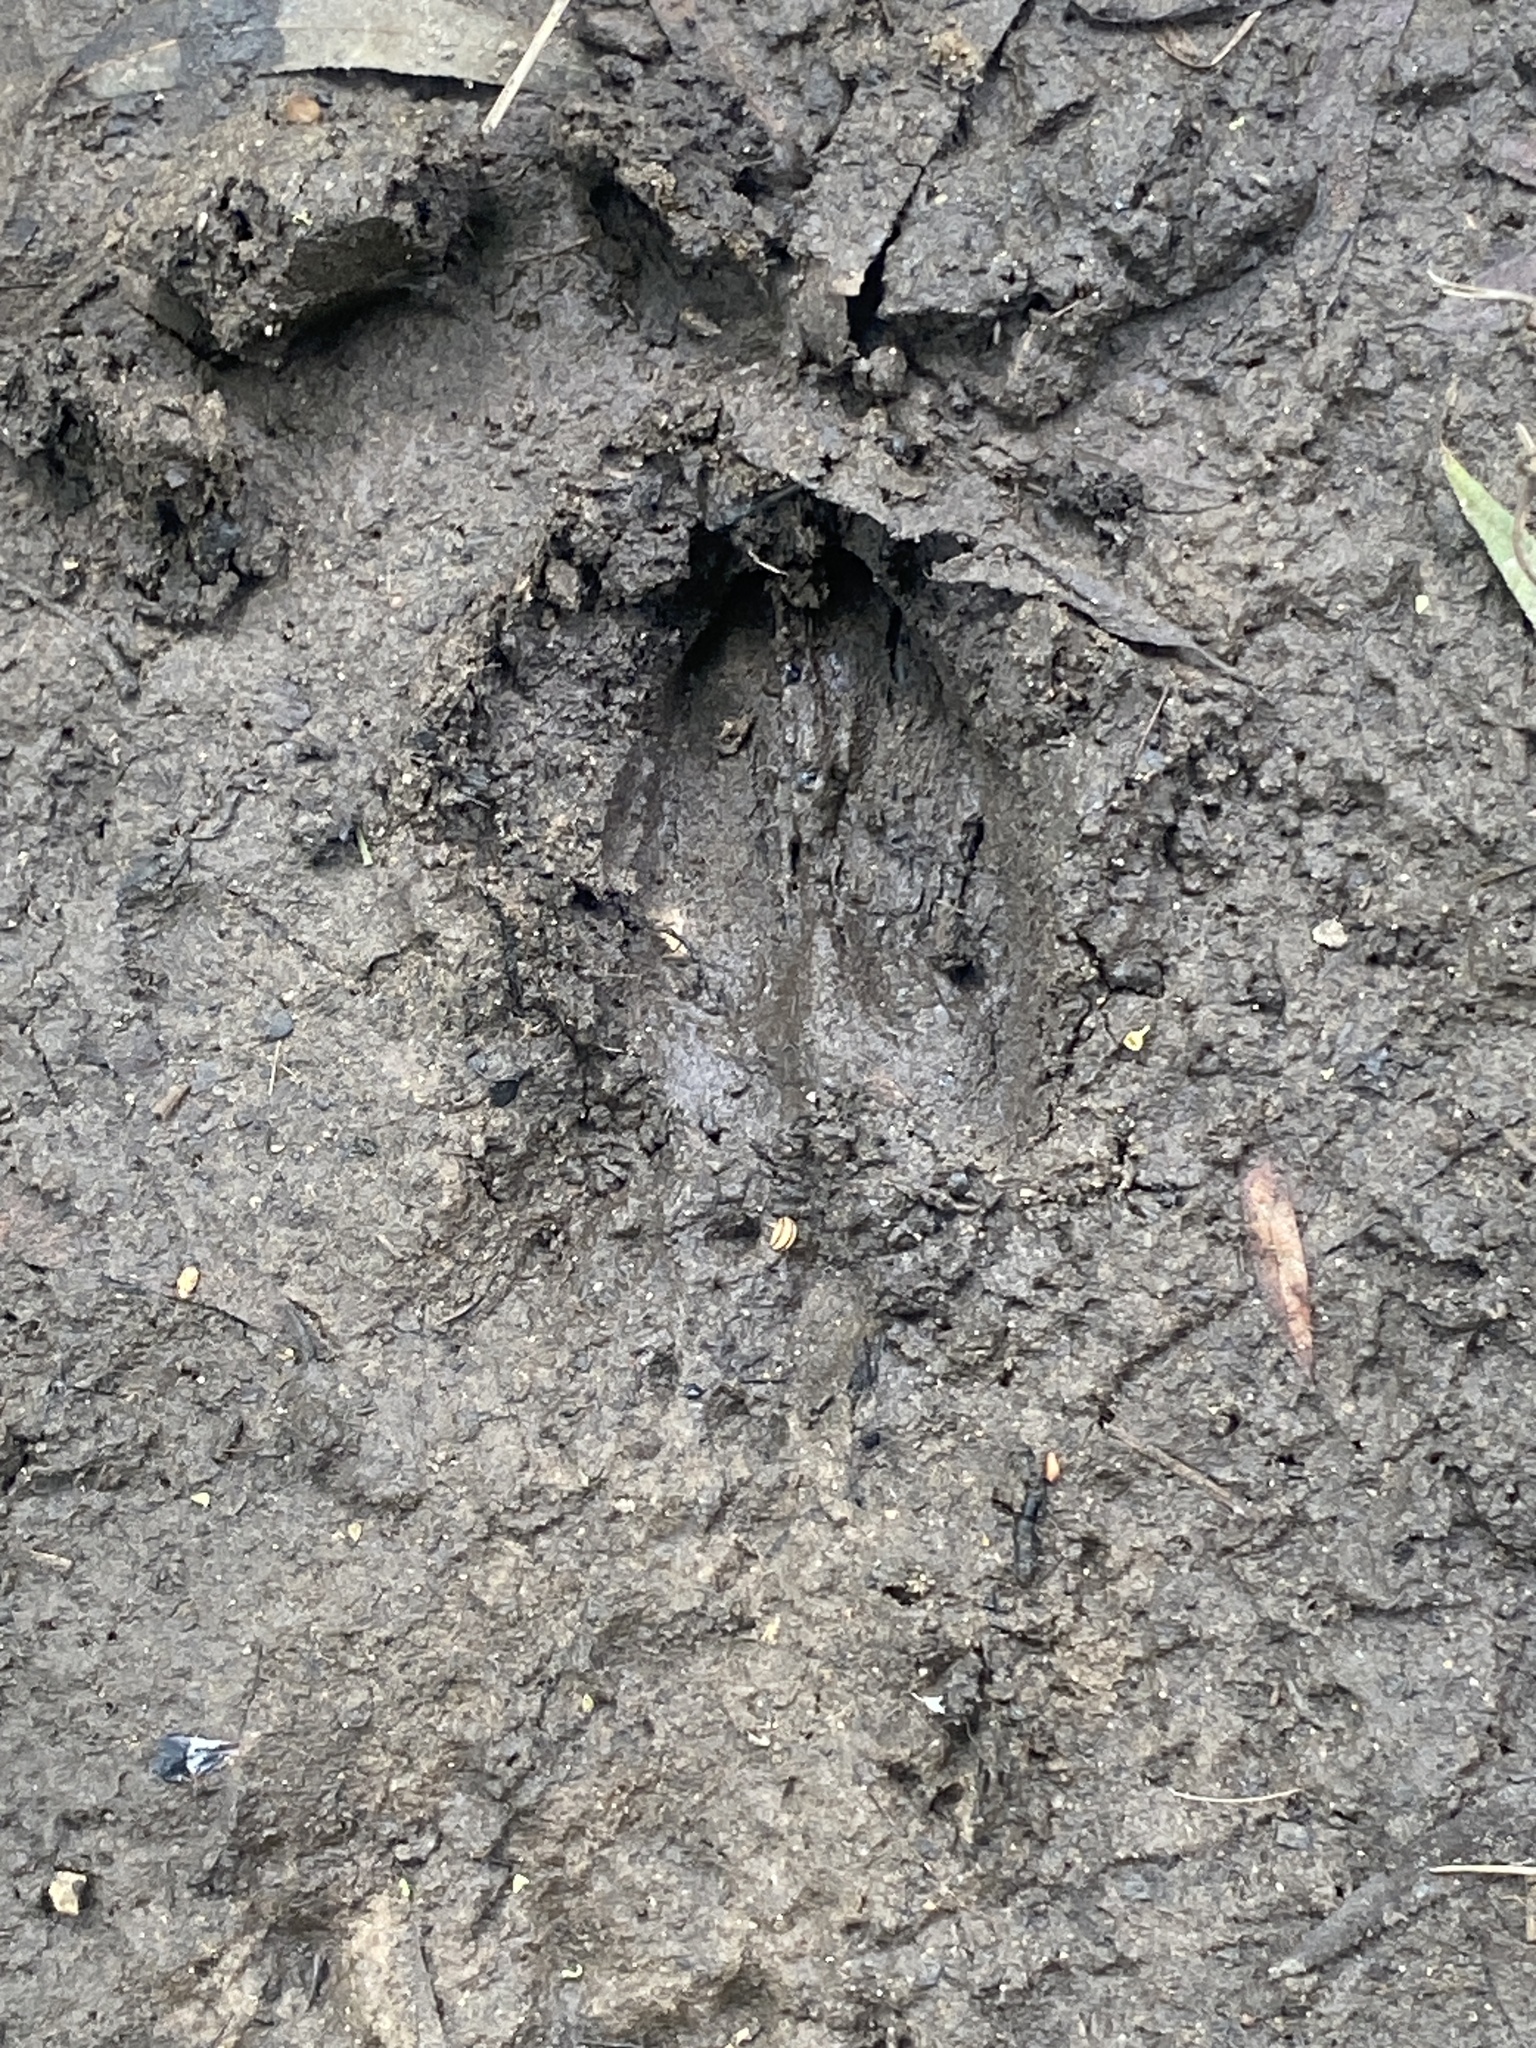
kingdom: Animalia
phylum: Chordata
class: Mammalia
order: Artiodactyla
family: Cervidae
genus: Odocoileus
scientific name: Odocoileus virginianus
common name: White-tailed deer
